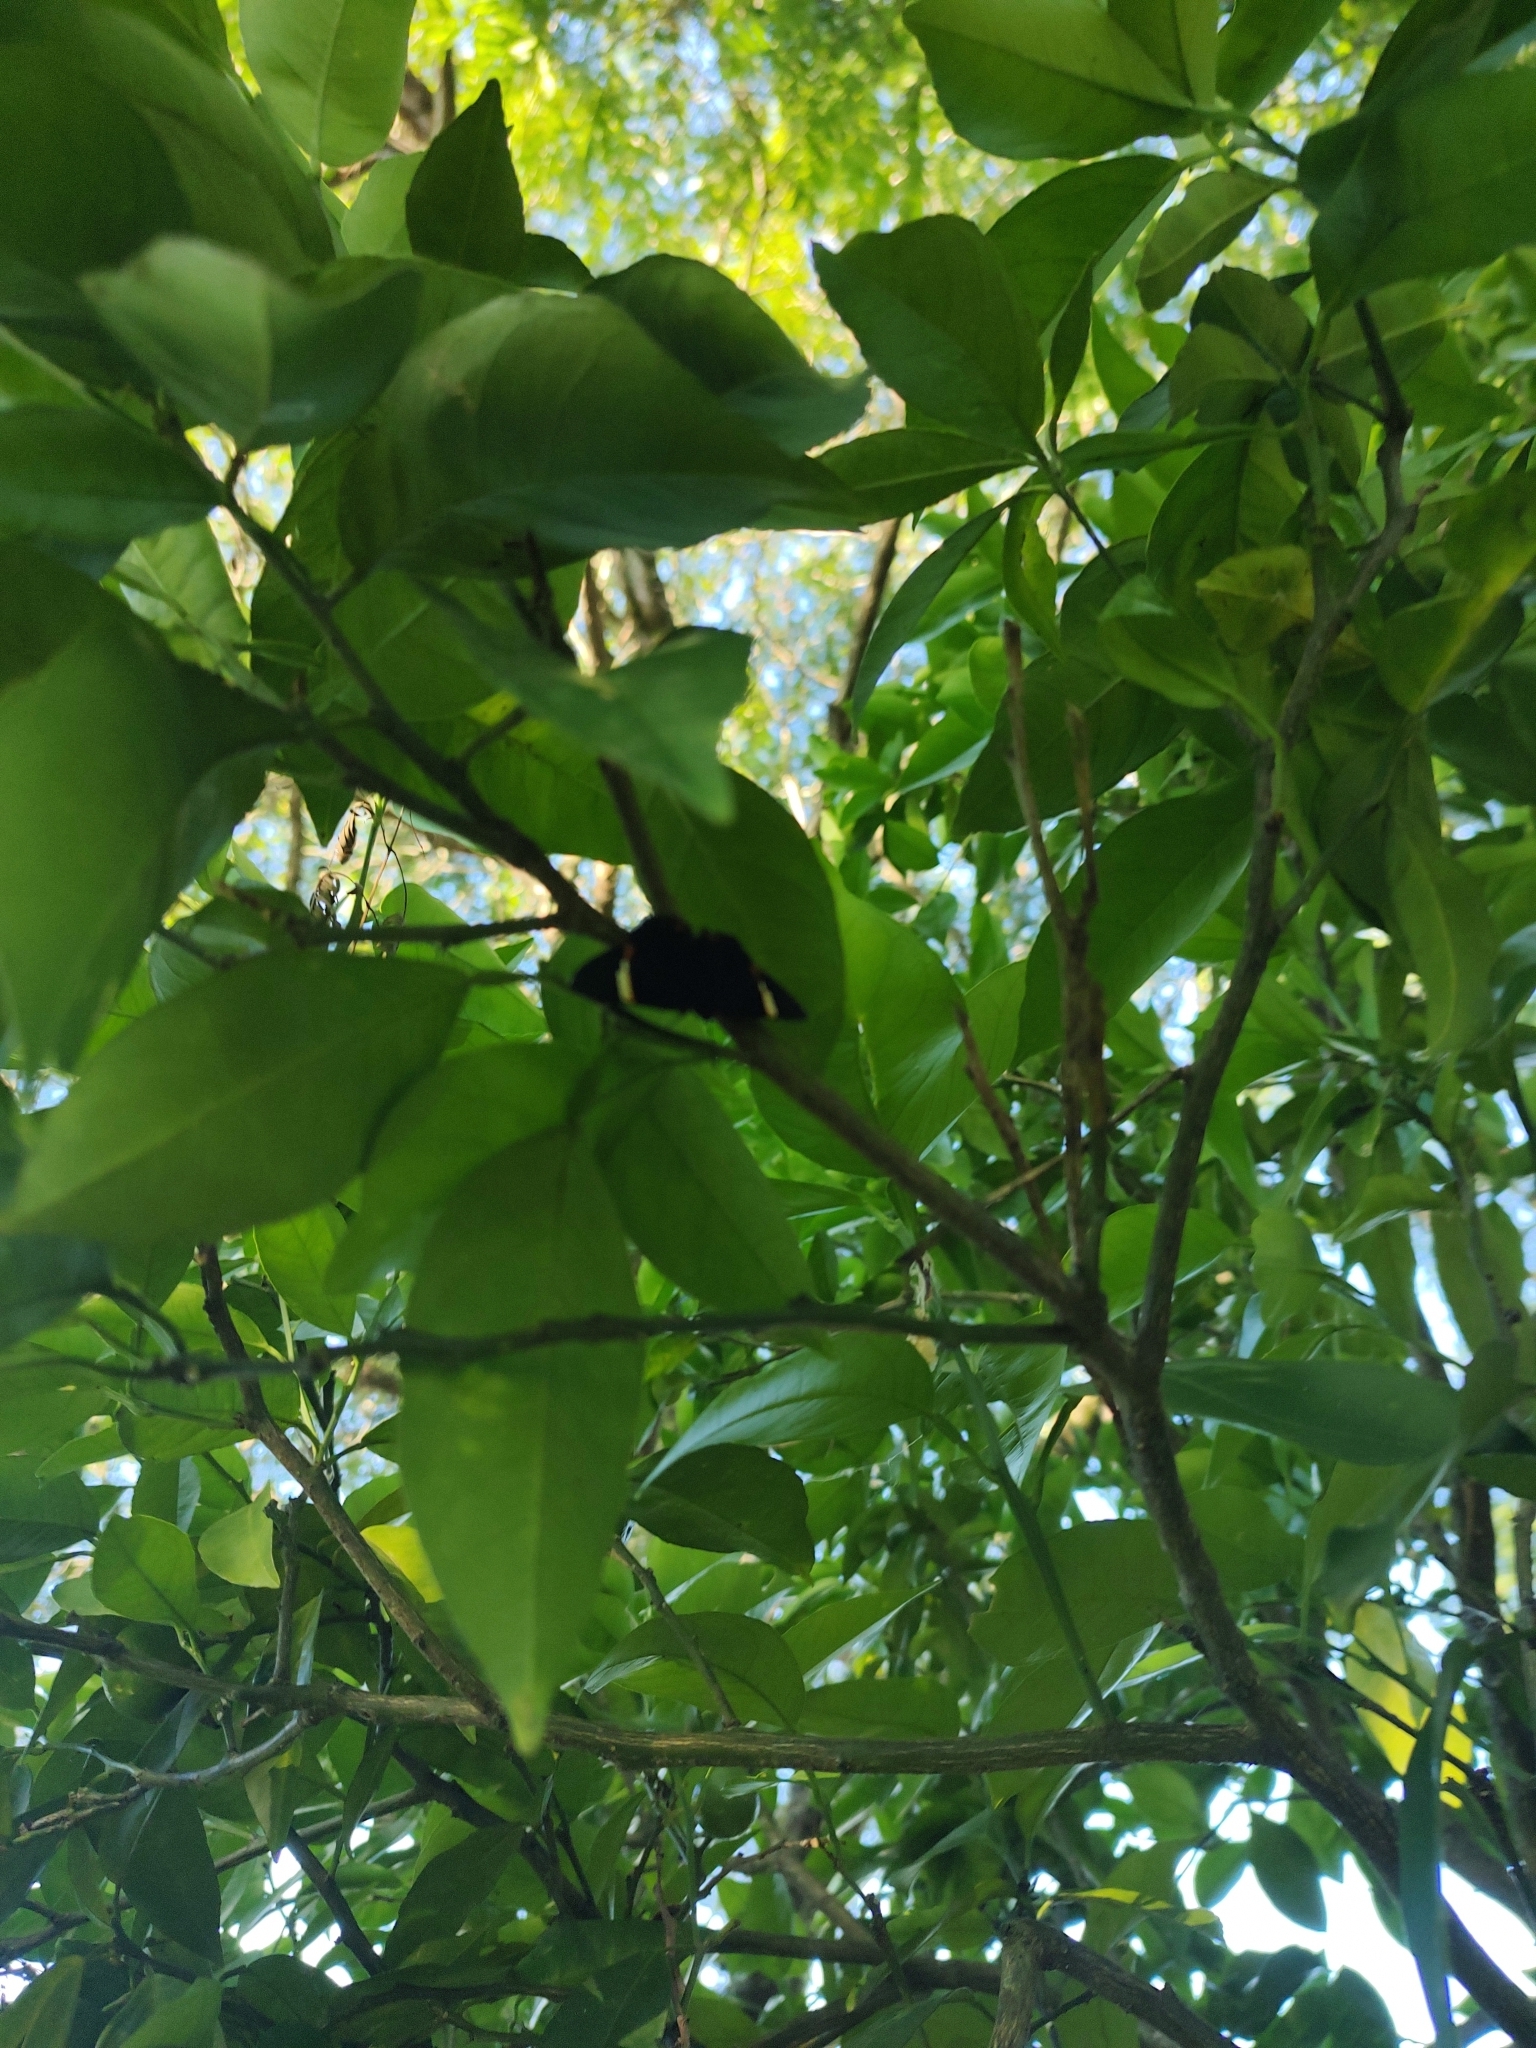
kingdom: Animalia
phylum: Arthropoda
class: Insecta
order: Lepidoptera
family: Riodinidae
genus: Riodina
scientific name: Riodina lycisca
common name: Lycisca metalmark
